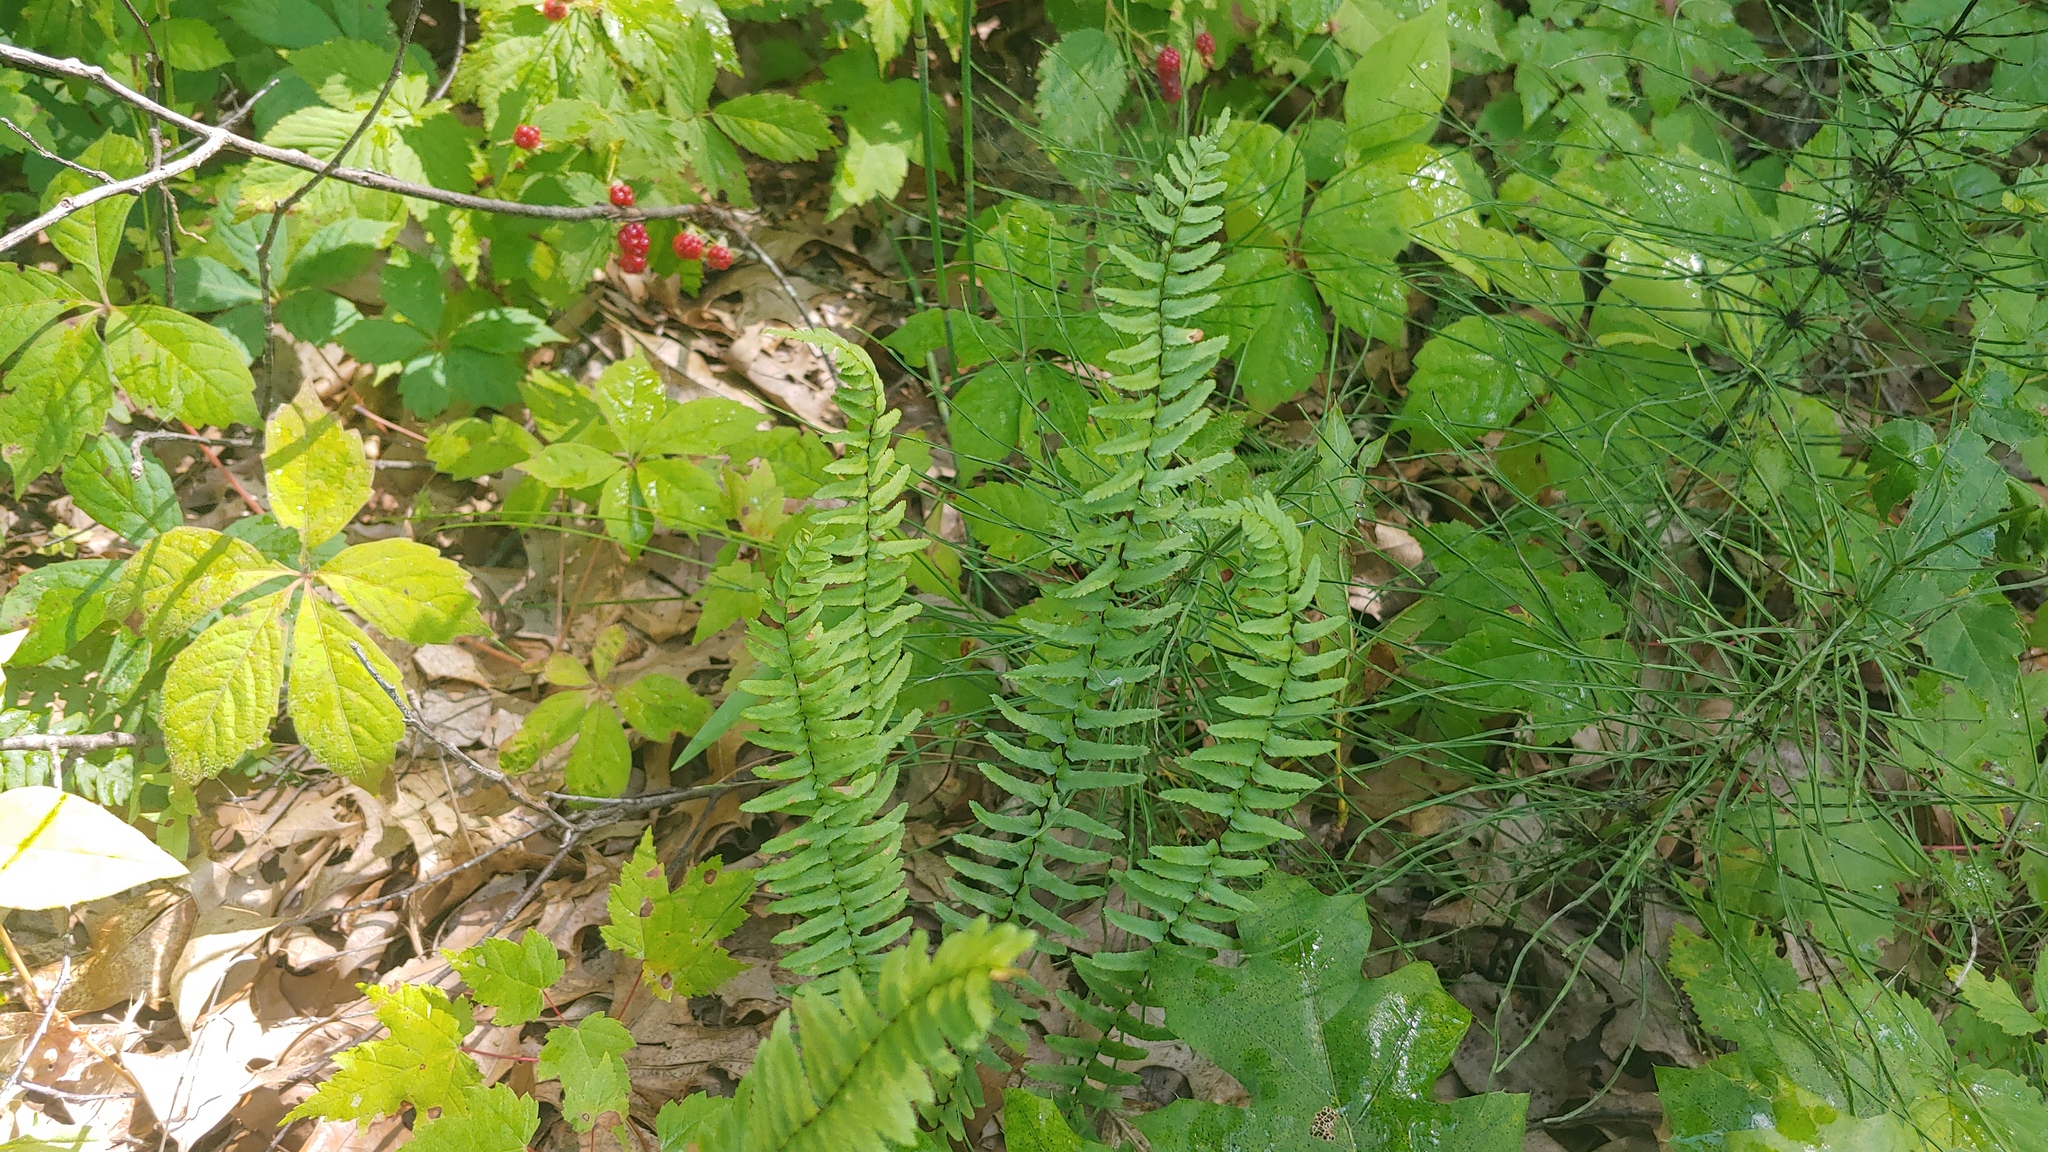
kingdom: Plantae
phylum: Tracheophyta
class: Polypodiopsida
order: Polypodiales
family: Aspleniaceae
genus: Asplenium
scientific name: Asplenium platyneuron
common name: Ebony spleenwort
